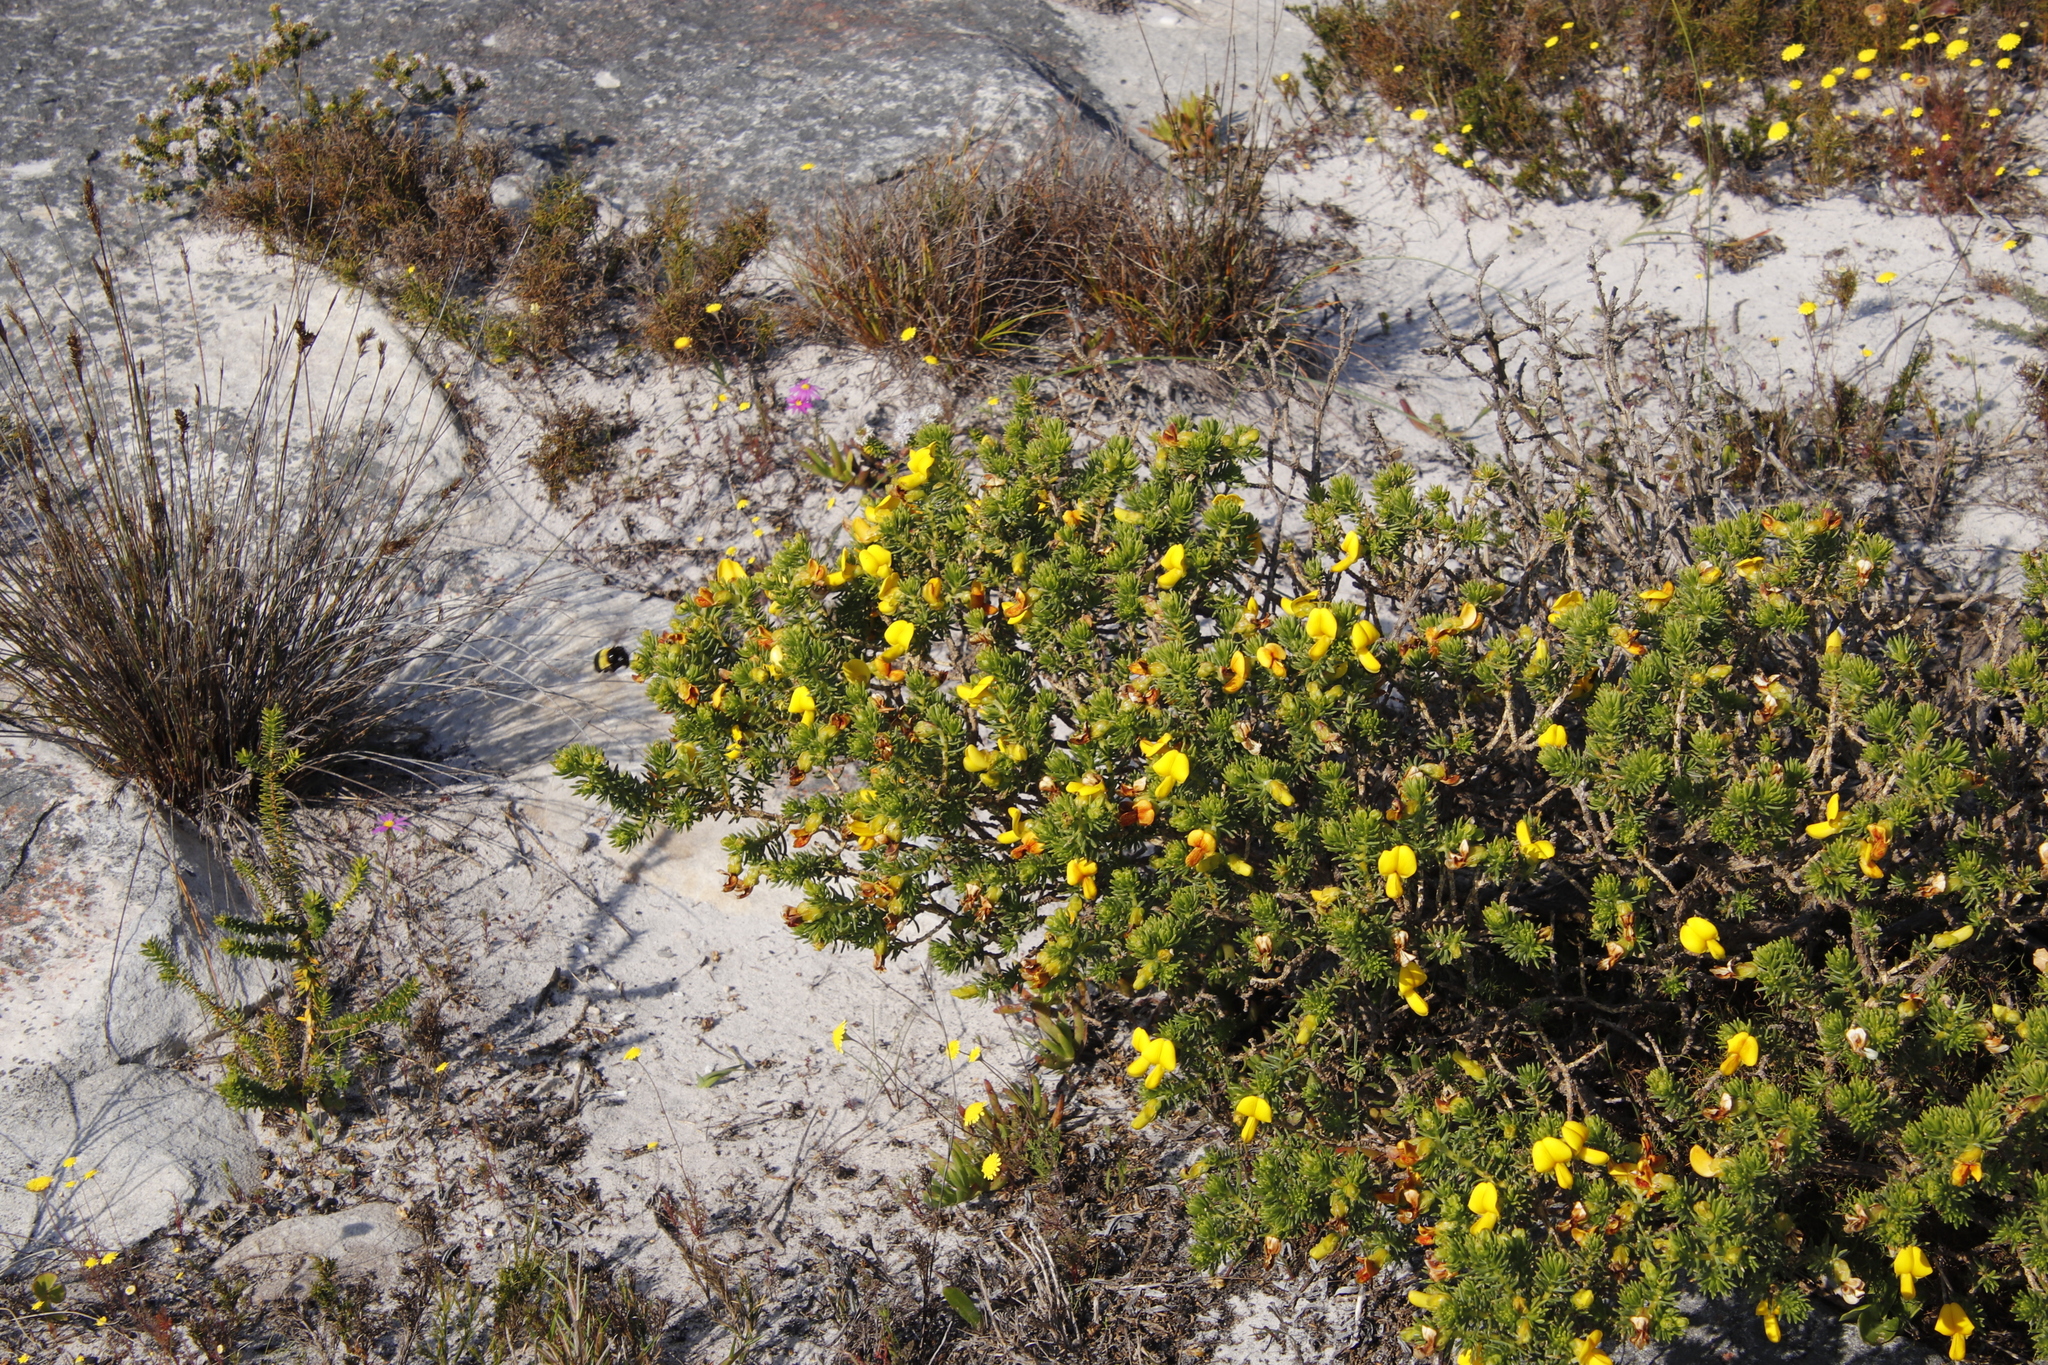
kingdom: Plantae
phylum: Tracheophyta
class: Magnoliopsida
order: Fabales
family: Fabaceae
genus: Aspalathus
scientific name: Aspalathus capensis
